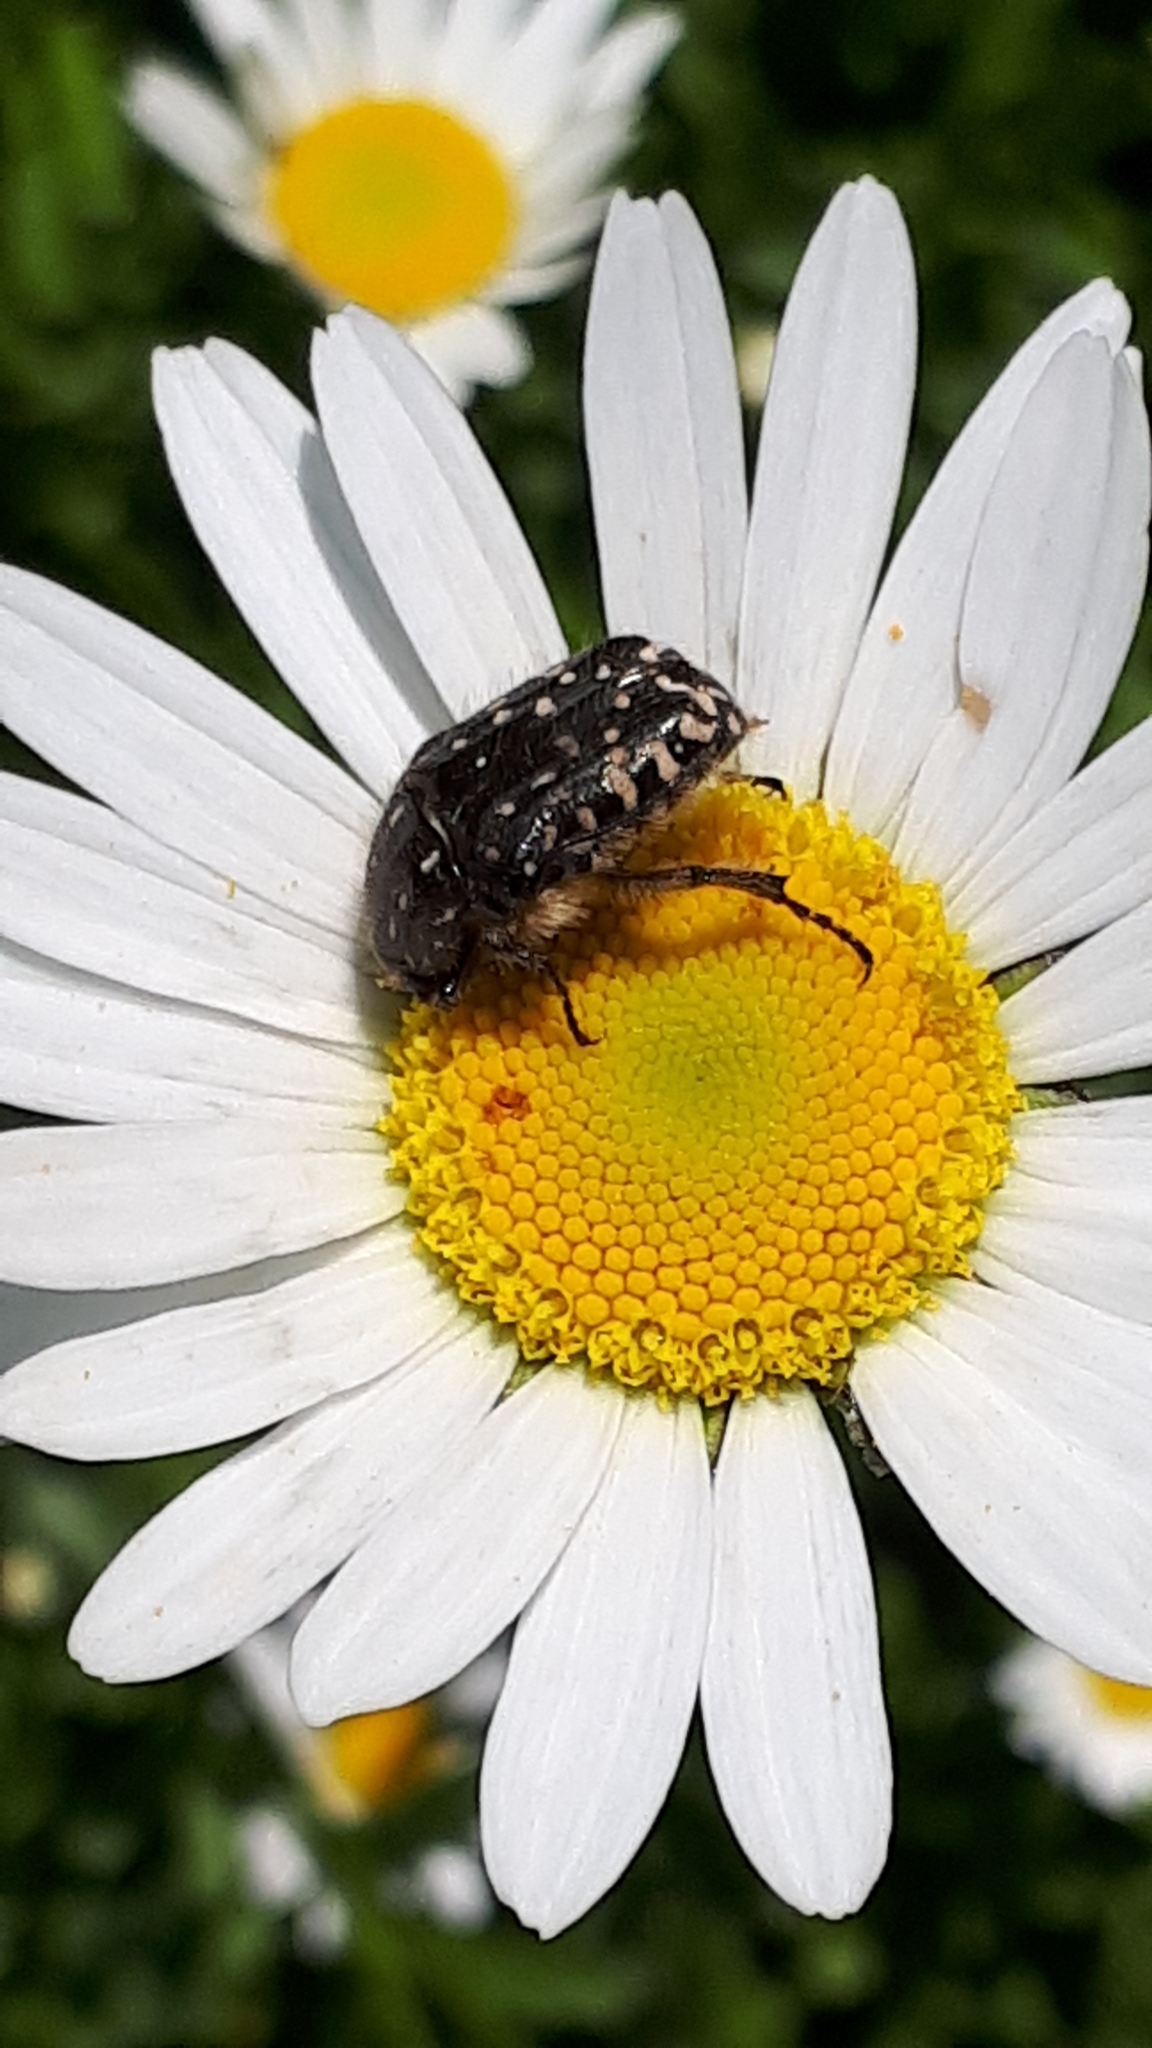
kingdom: Animalia
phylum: Arthropoda
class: Insecta
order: Coleoptera
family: Scarabaeidae
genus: Oxythyrea
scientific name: Oxythyrea funesta
